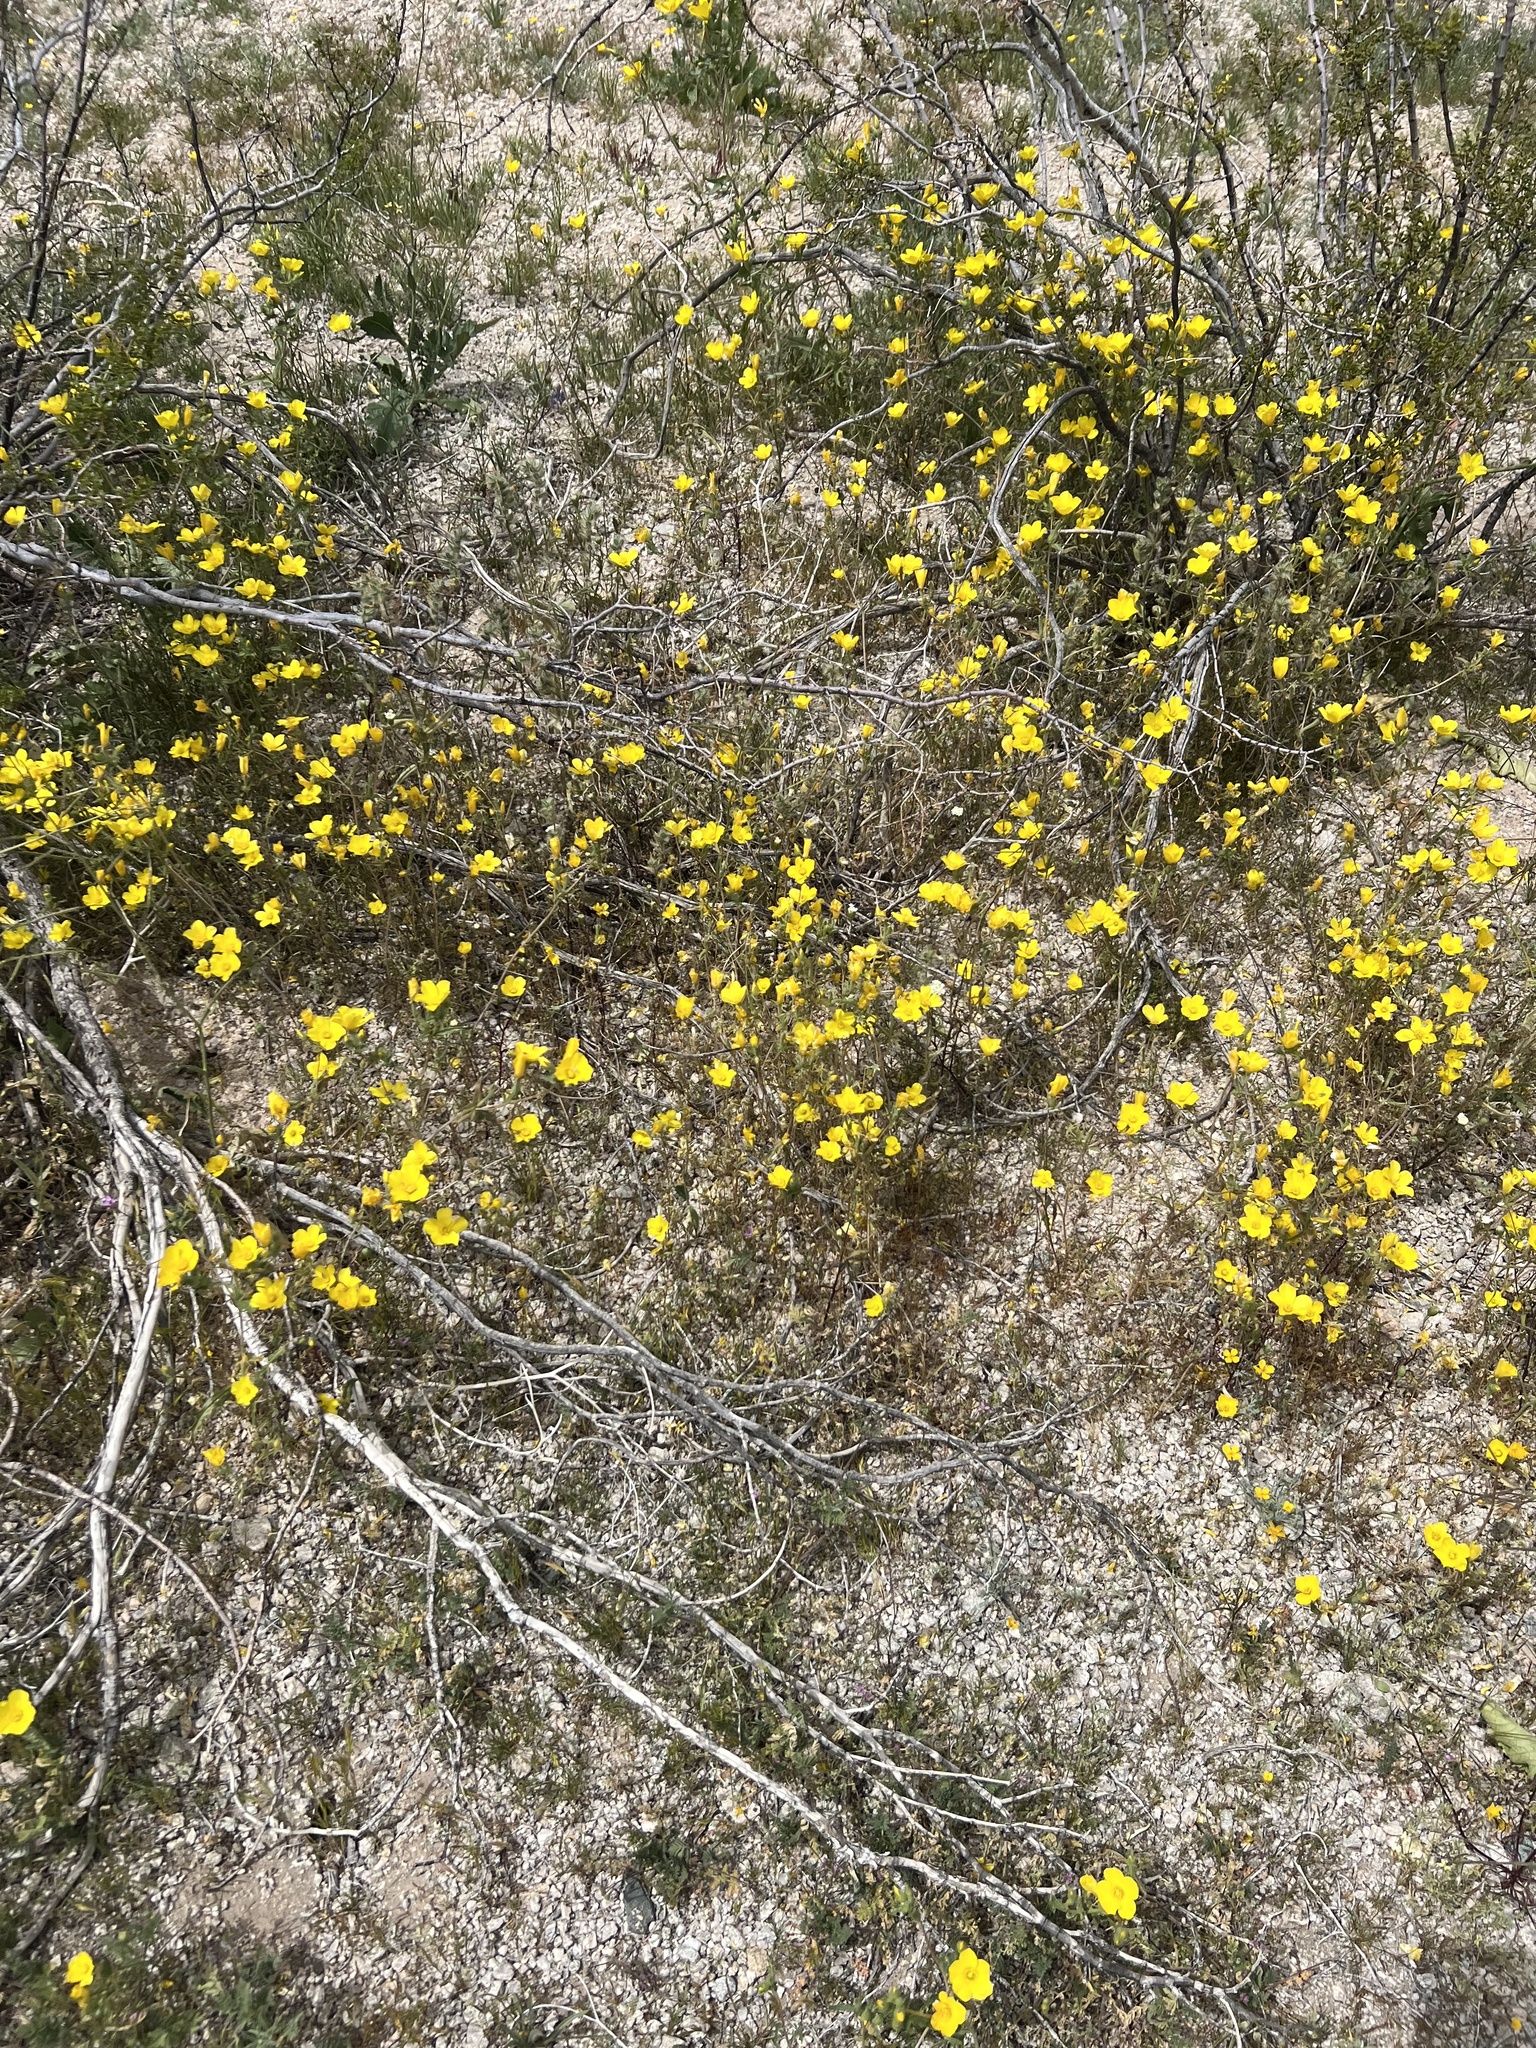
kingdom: Plantae
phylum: Tracheophyta
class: Magnoliopsida
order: Ericales
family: Polemoniaceae
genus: Leptosiphon
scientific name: Leptosiphon chrysanthus
